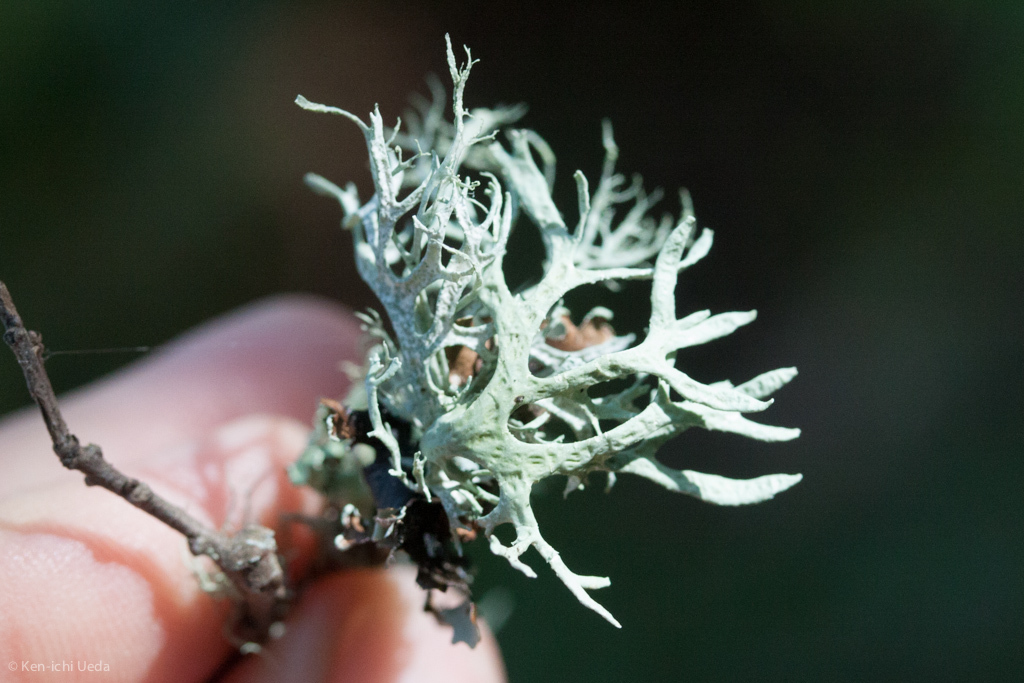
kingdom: Fungi
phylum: Ascomycota
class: Lecanoromycetes
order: Lecanorales
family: Parmeliaceae
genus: Evernia
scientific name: Evernia prunastri
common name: Oak moss
